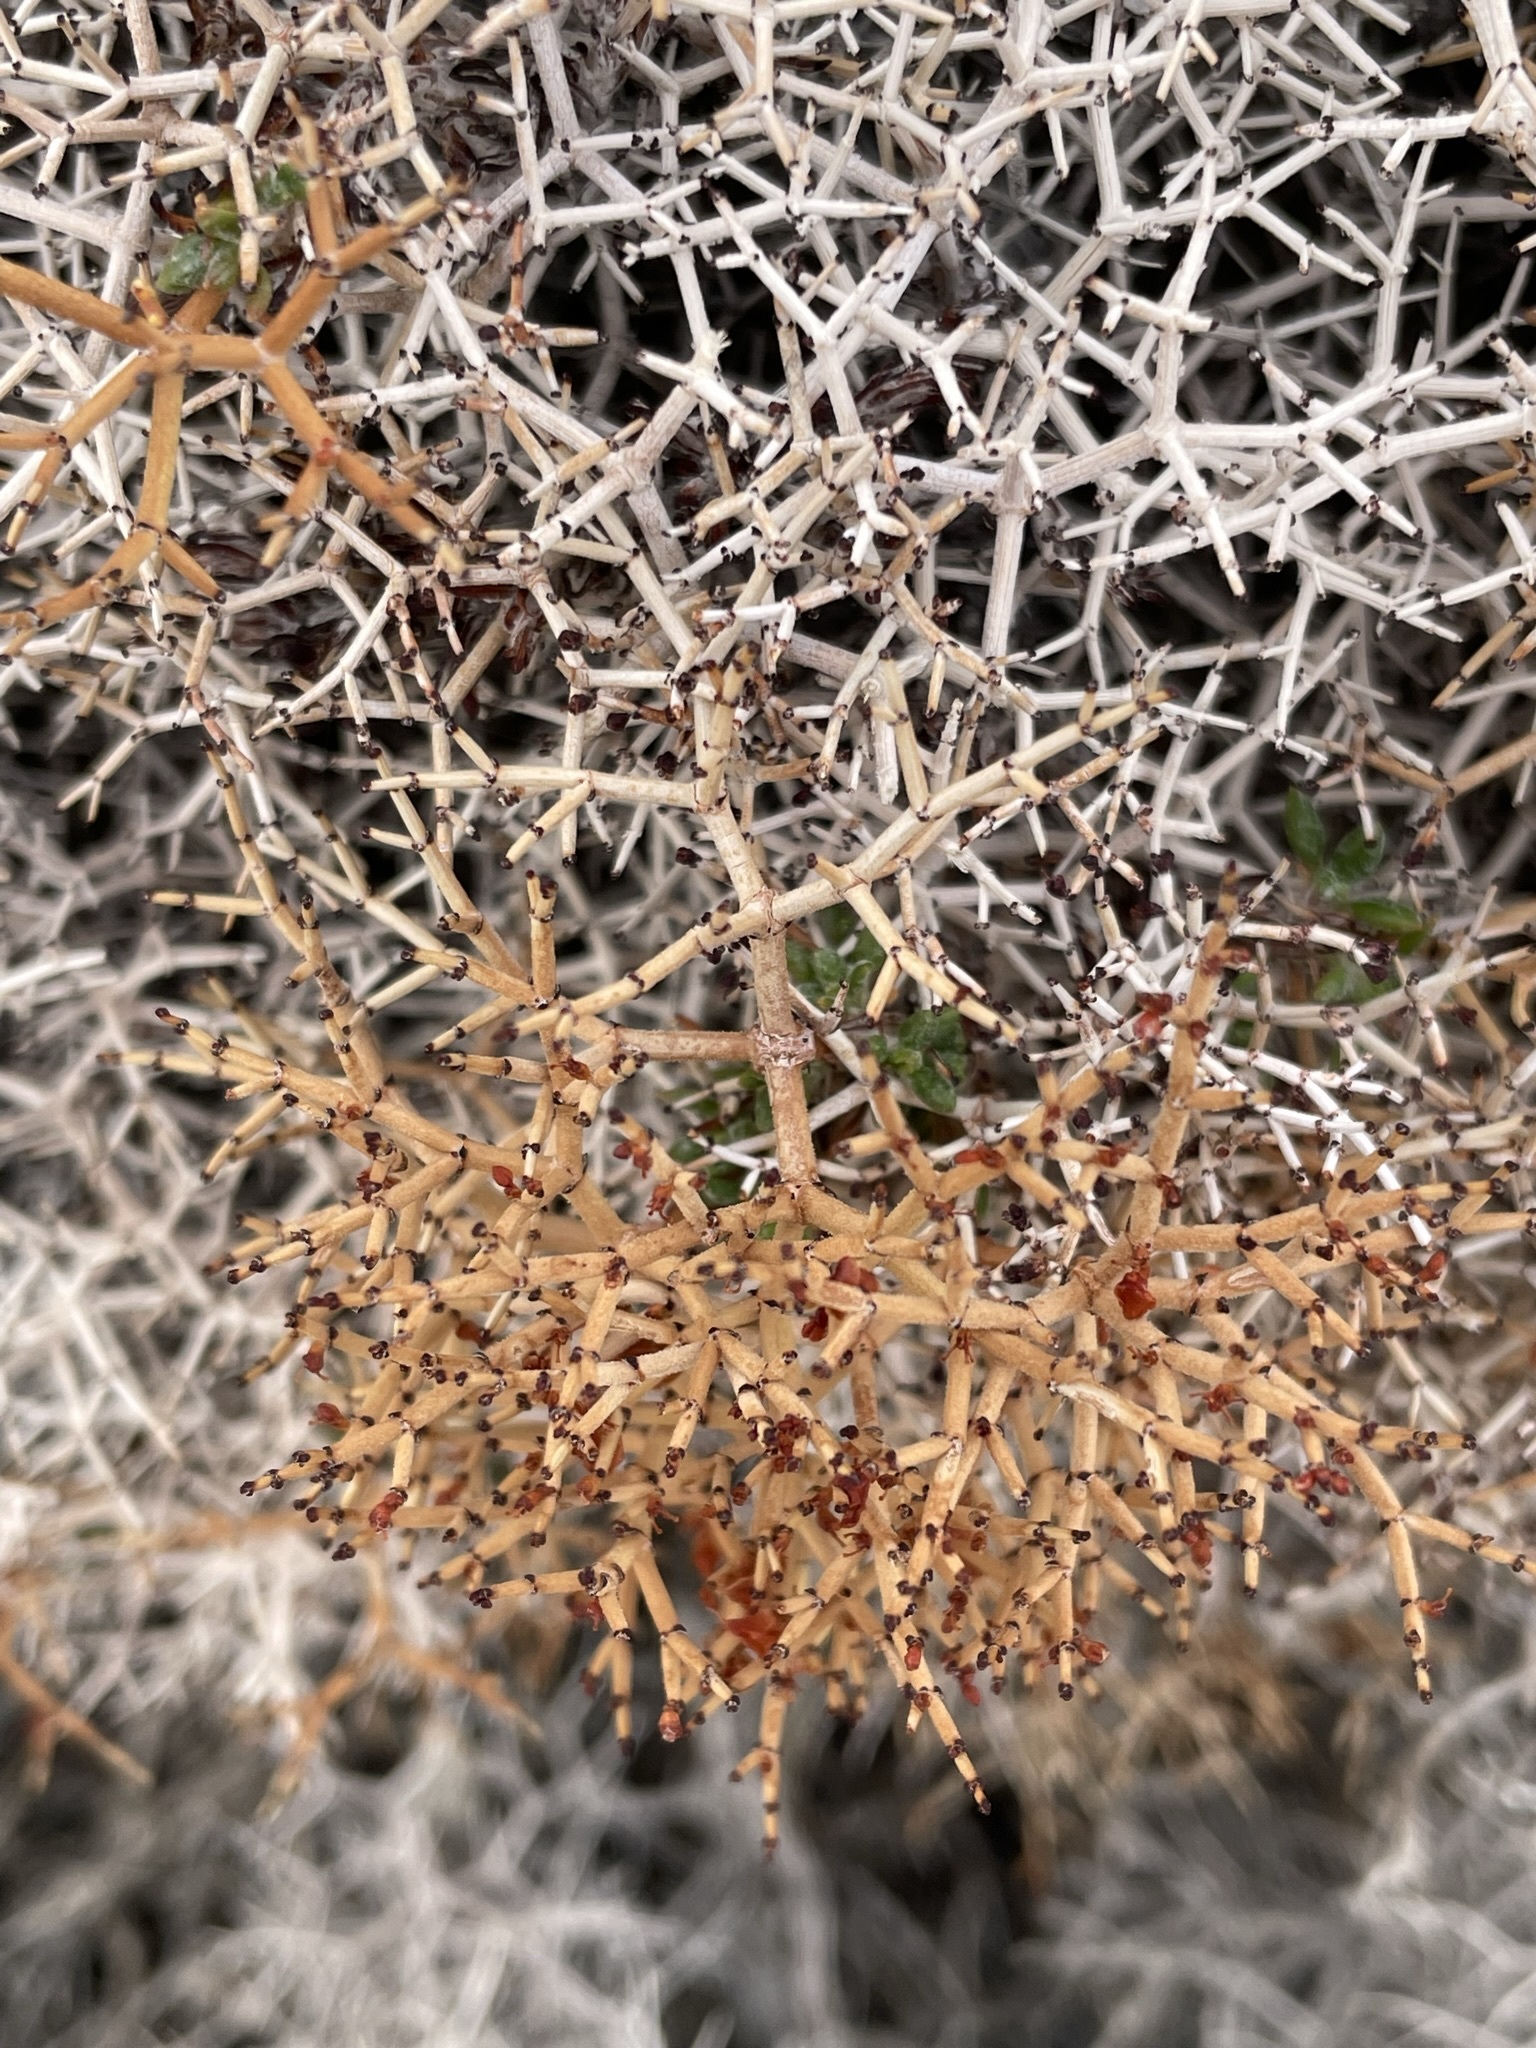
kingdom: Plantae
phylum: Tracheophyta
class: Magnoliopsida
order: Caryophyllales
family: Polygonaceae
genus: Eriogonum
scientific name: Eriogonum heermannii
